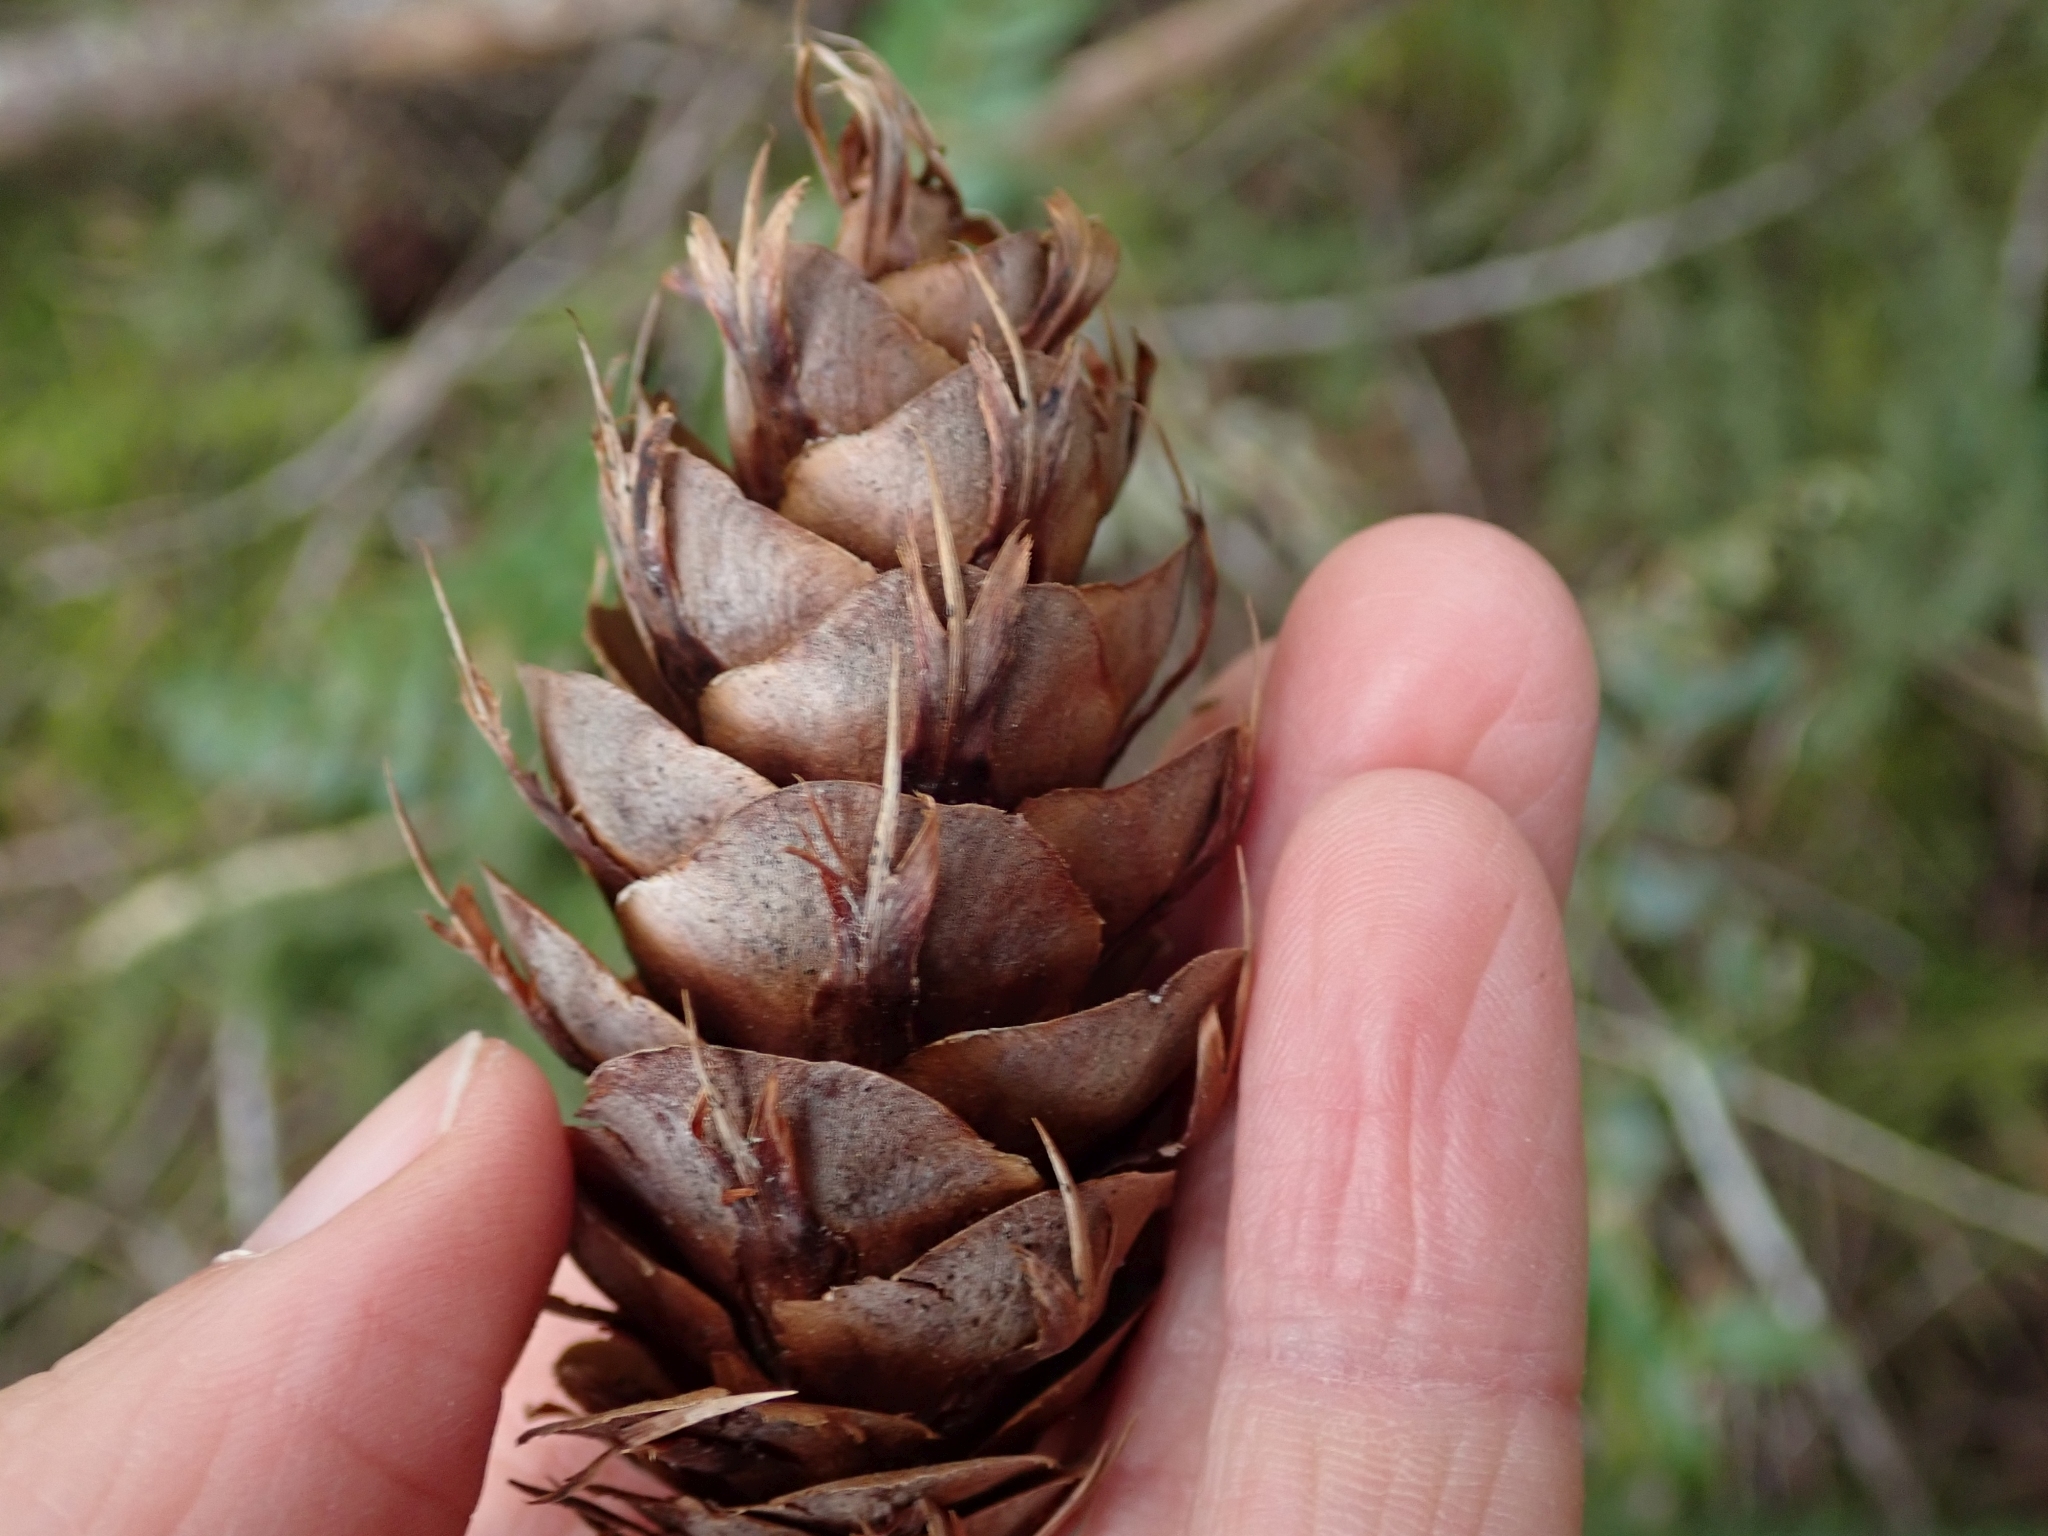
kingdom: Plantae
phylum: Tracheophyta
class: Pinopsida
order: Pinales
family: Pinaceae
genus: Pseudotsuga
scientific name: Pseudotsuga menziesii
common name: Douglas fir
